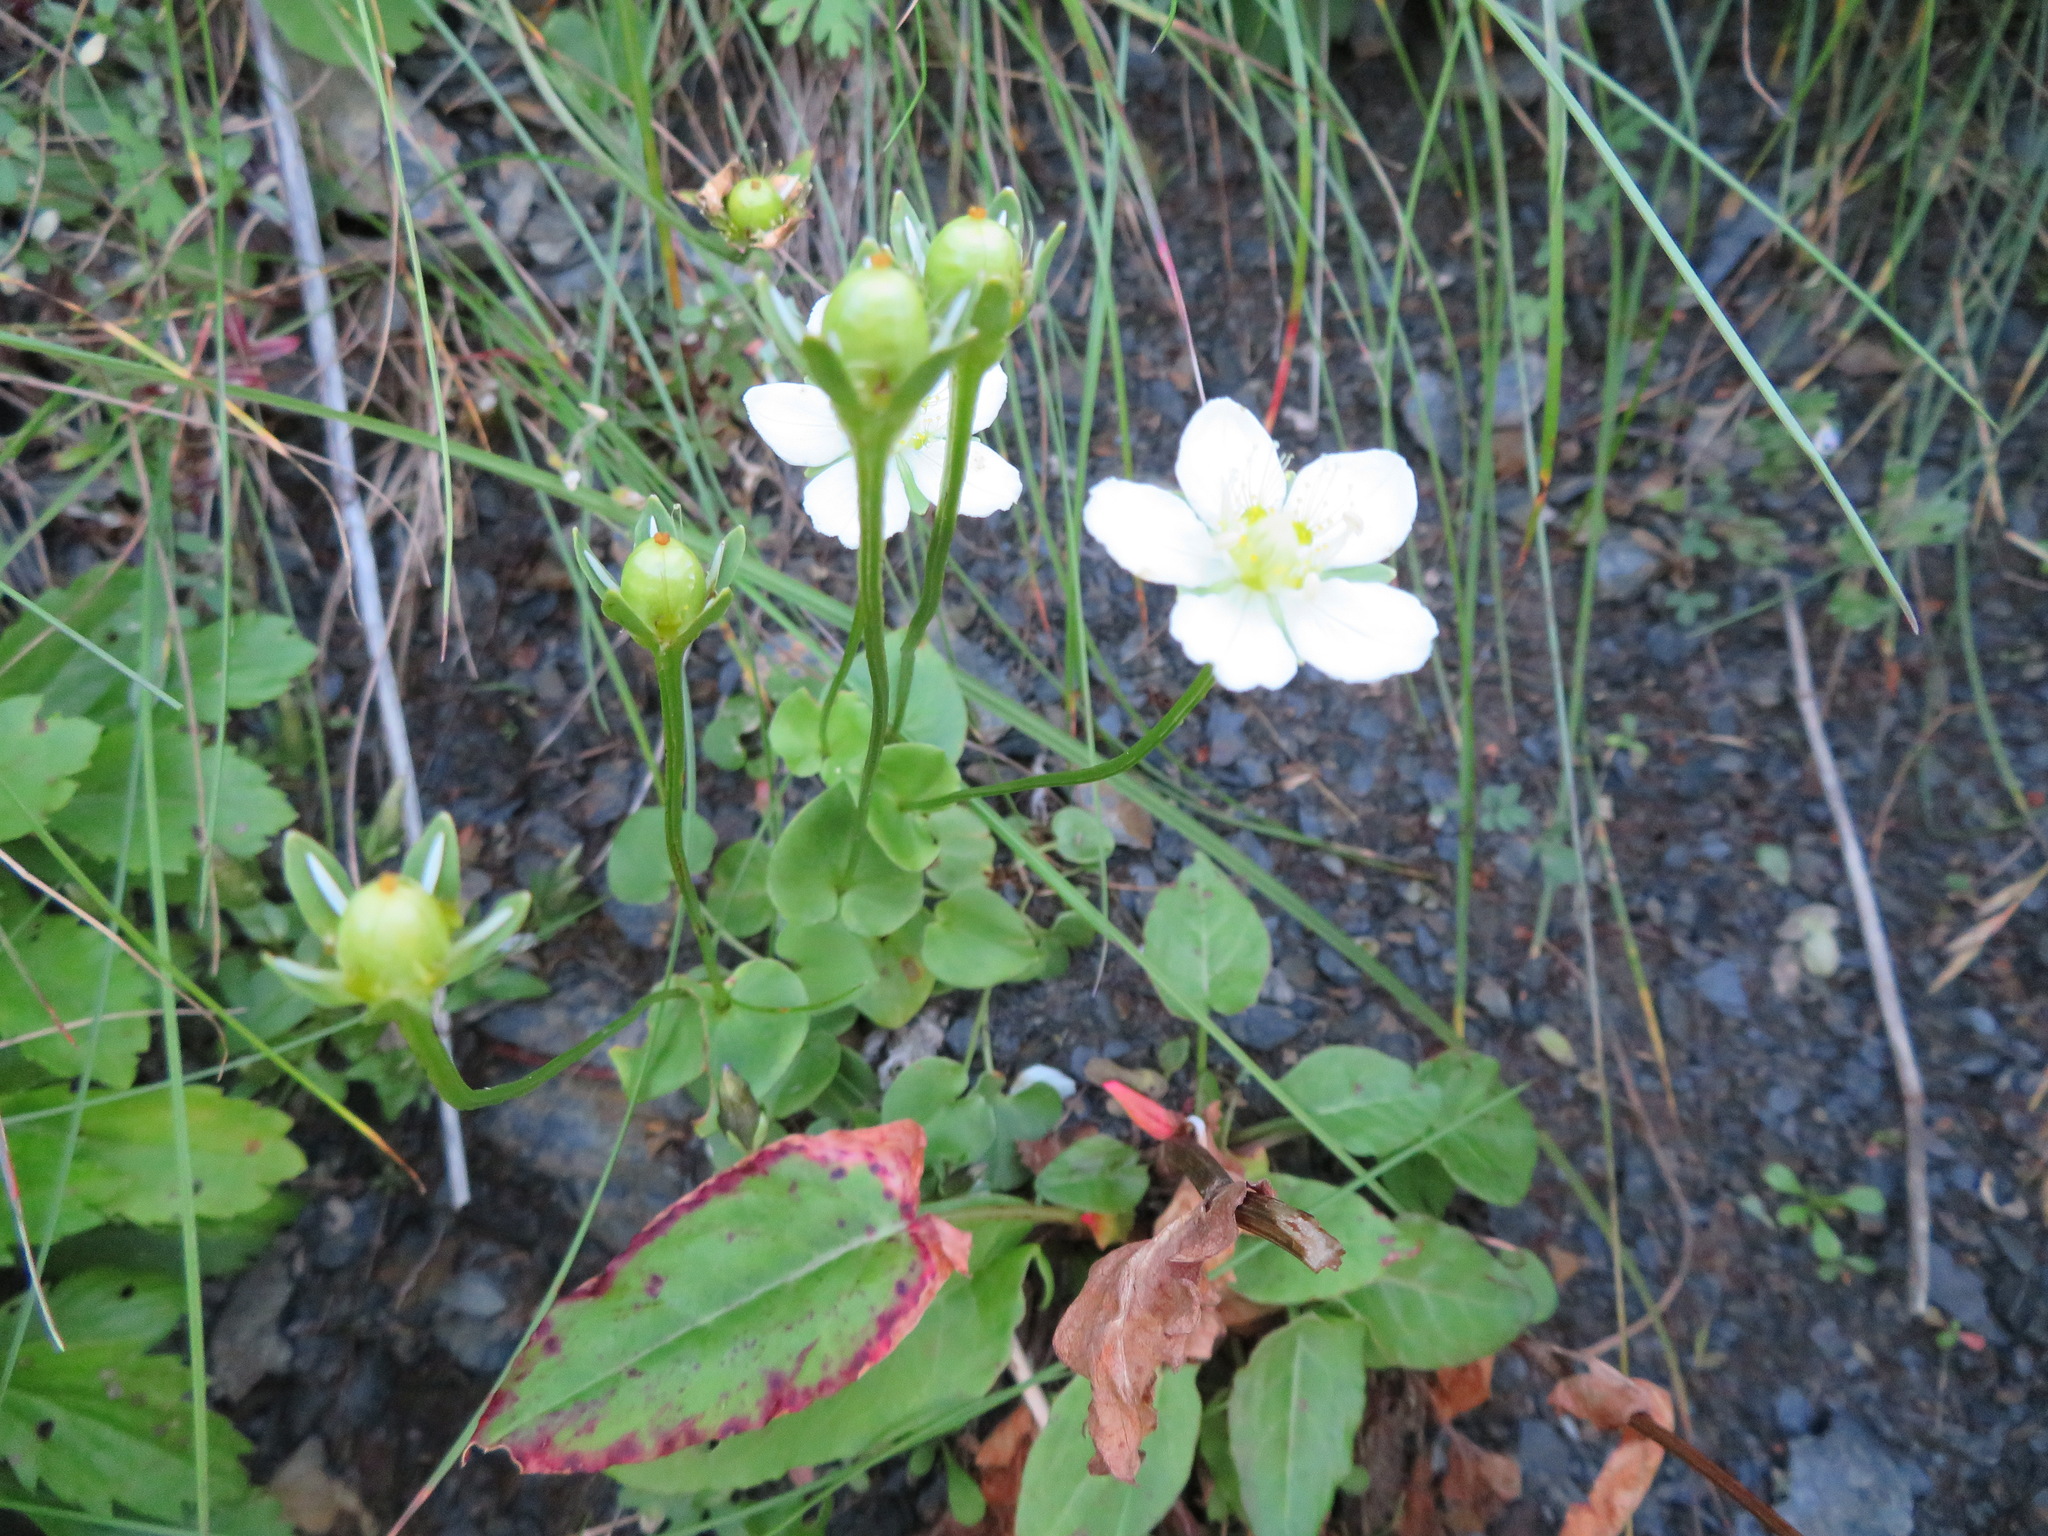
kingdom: Plantae
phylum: Tracheophyta
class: Magnoliopsida
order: Celastrales
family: Parnassiaceae
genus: Parnassia
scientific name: Parnassia palustris
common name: Grass-of-parnassus
